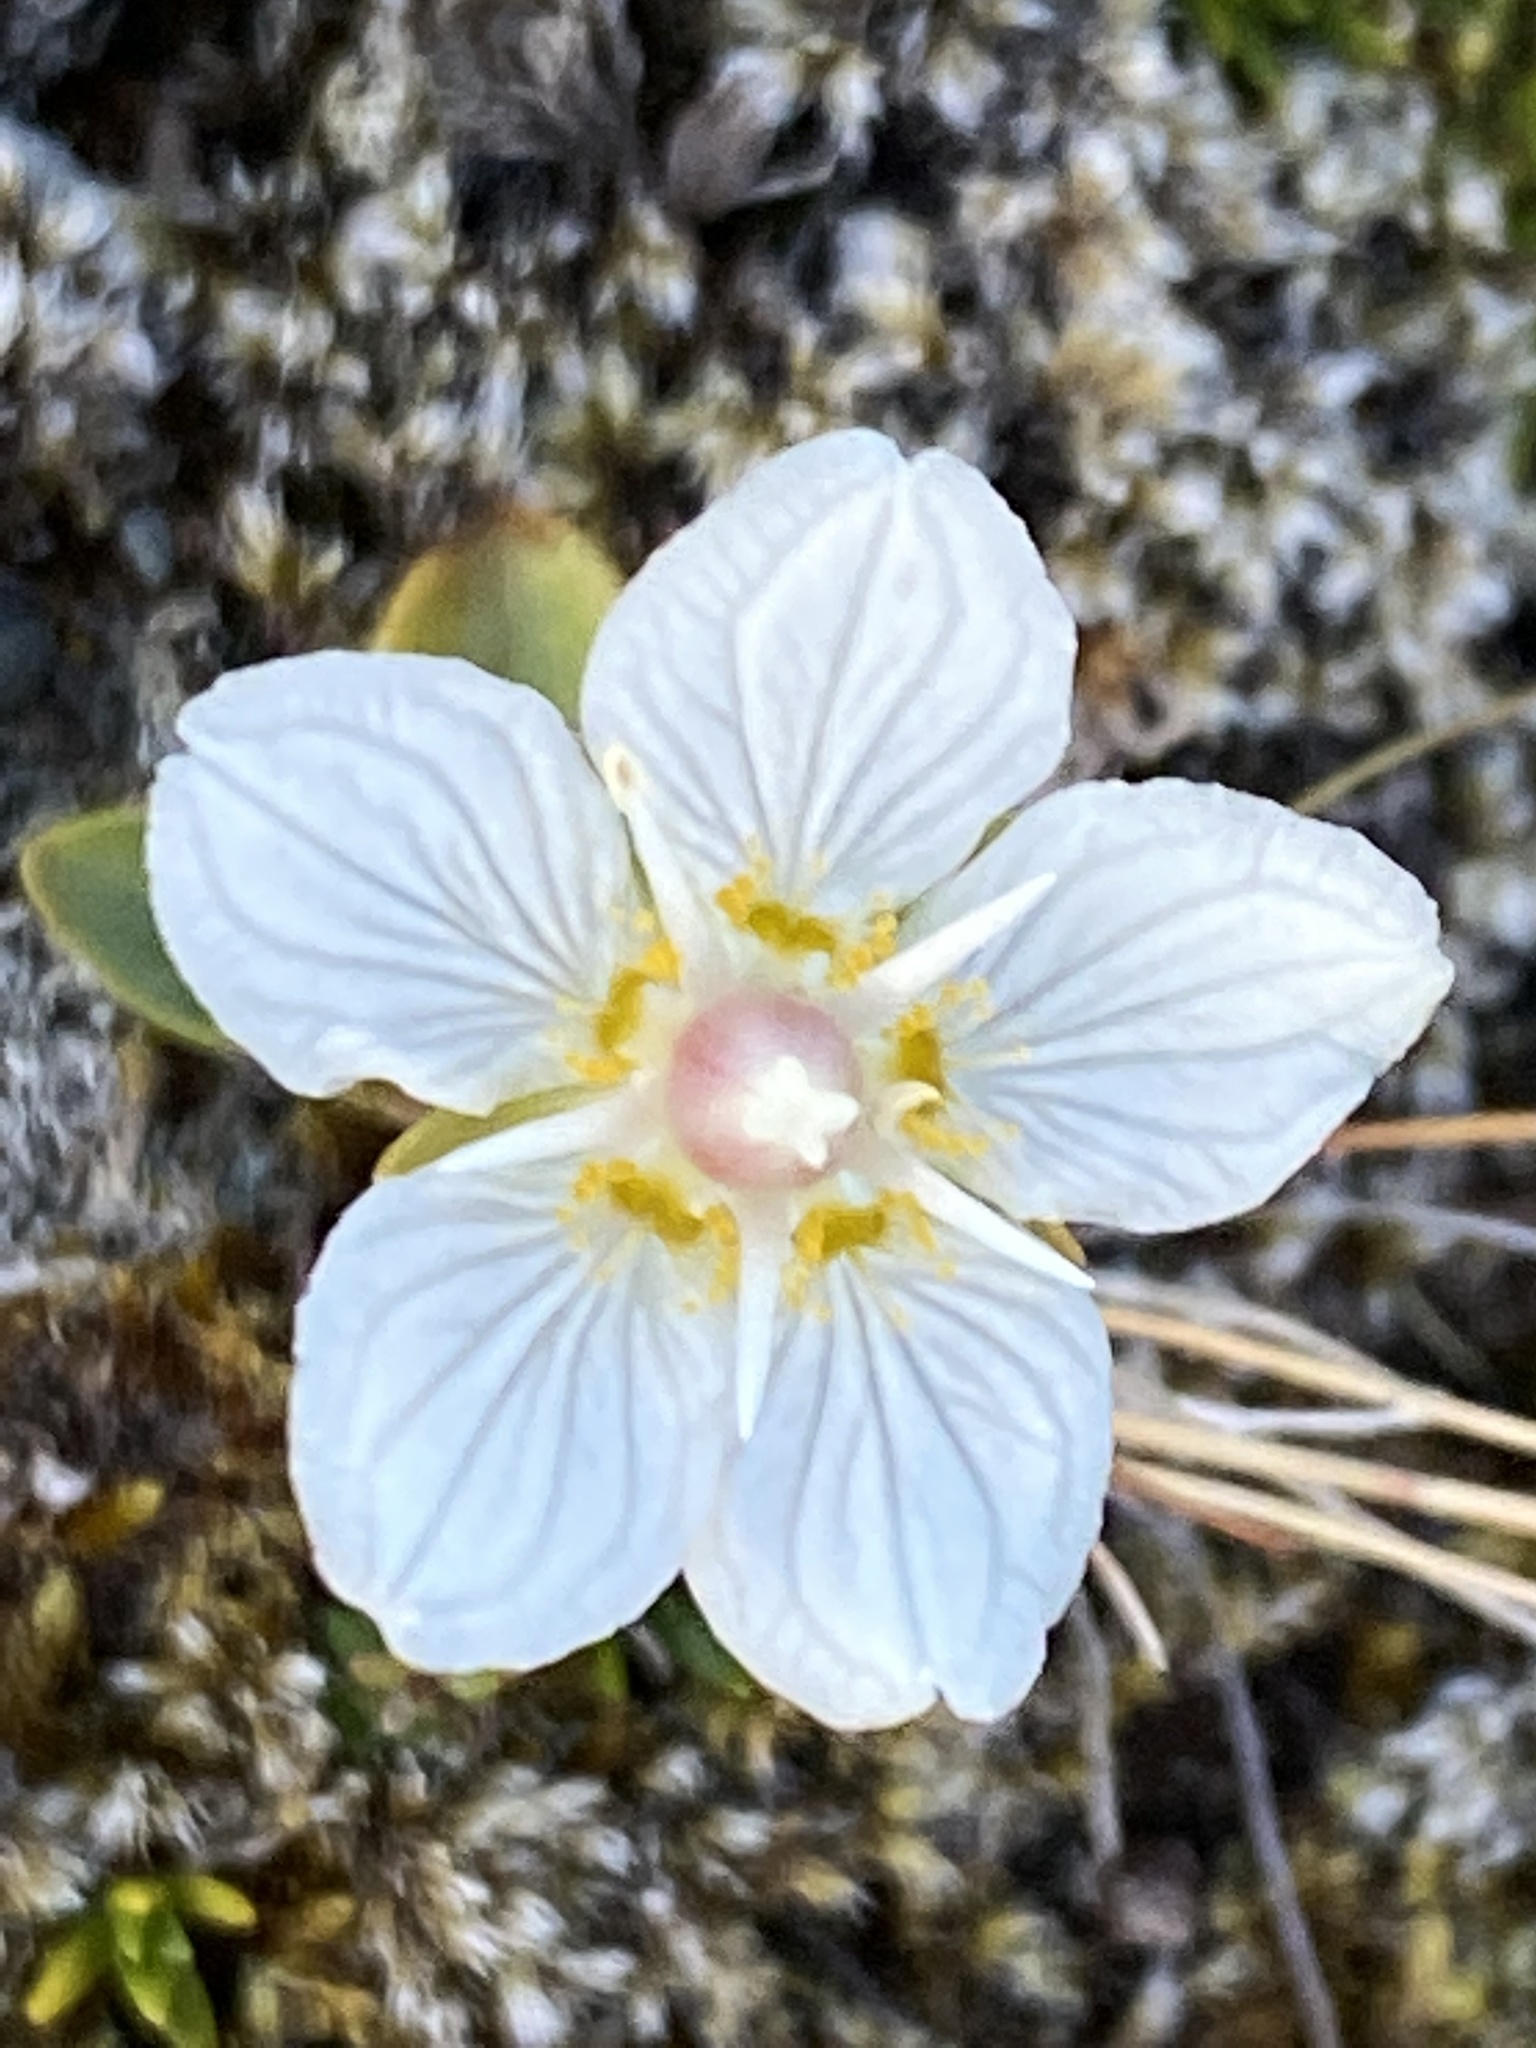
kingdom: Plantae
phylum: Tracheophyta
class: Magnoliopsida
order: Celastrales
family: Parnassiaceae
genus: Parnassia
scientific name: Parnassia palustris
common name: Grass-of-parnassus
